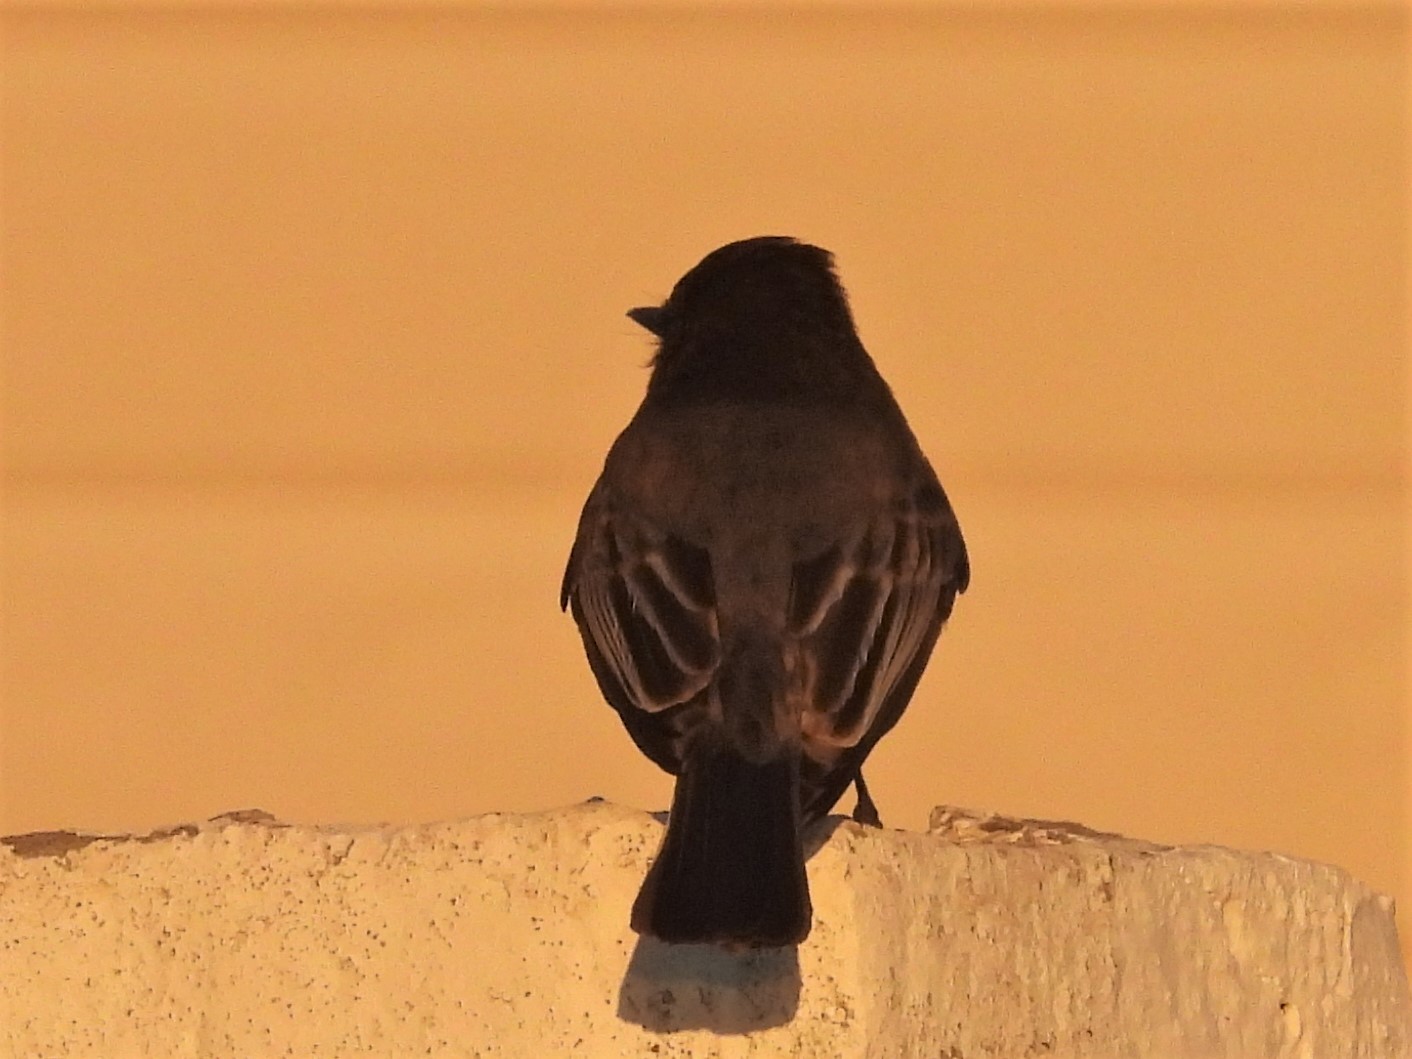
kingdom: Animalia
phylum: Chordata
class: Aves
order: Passeriformes
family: Tyrannidae
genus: Sayornis
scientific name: Sayornis nigricans
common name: Black phoebe
